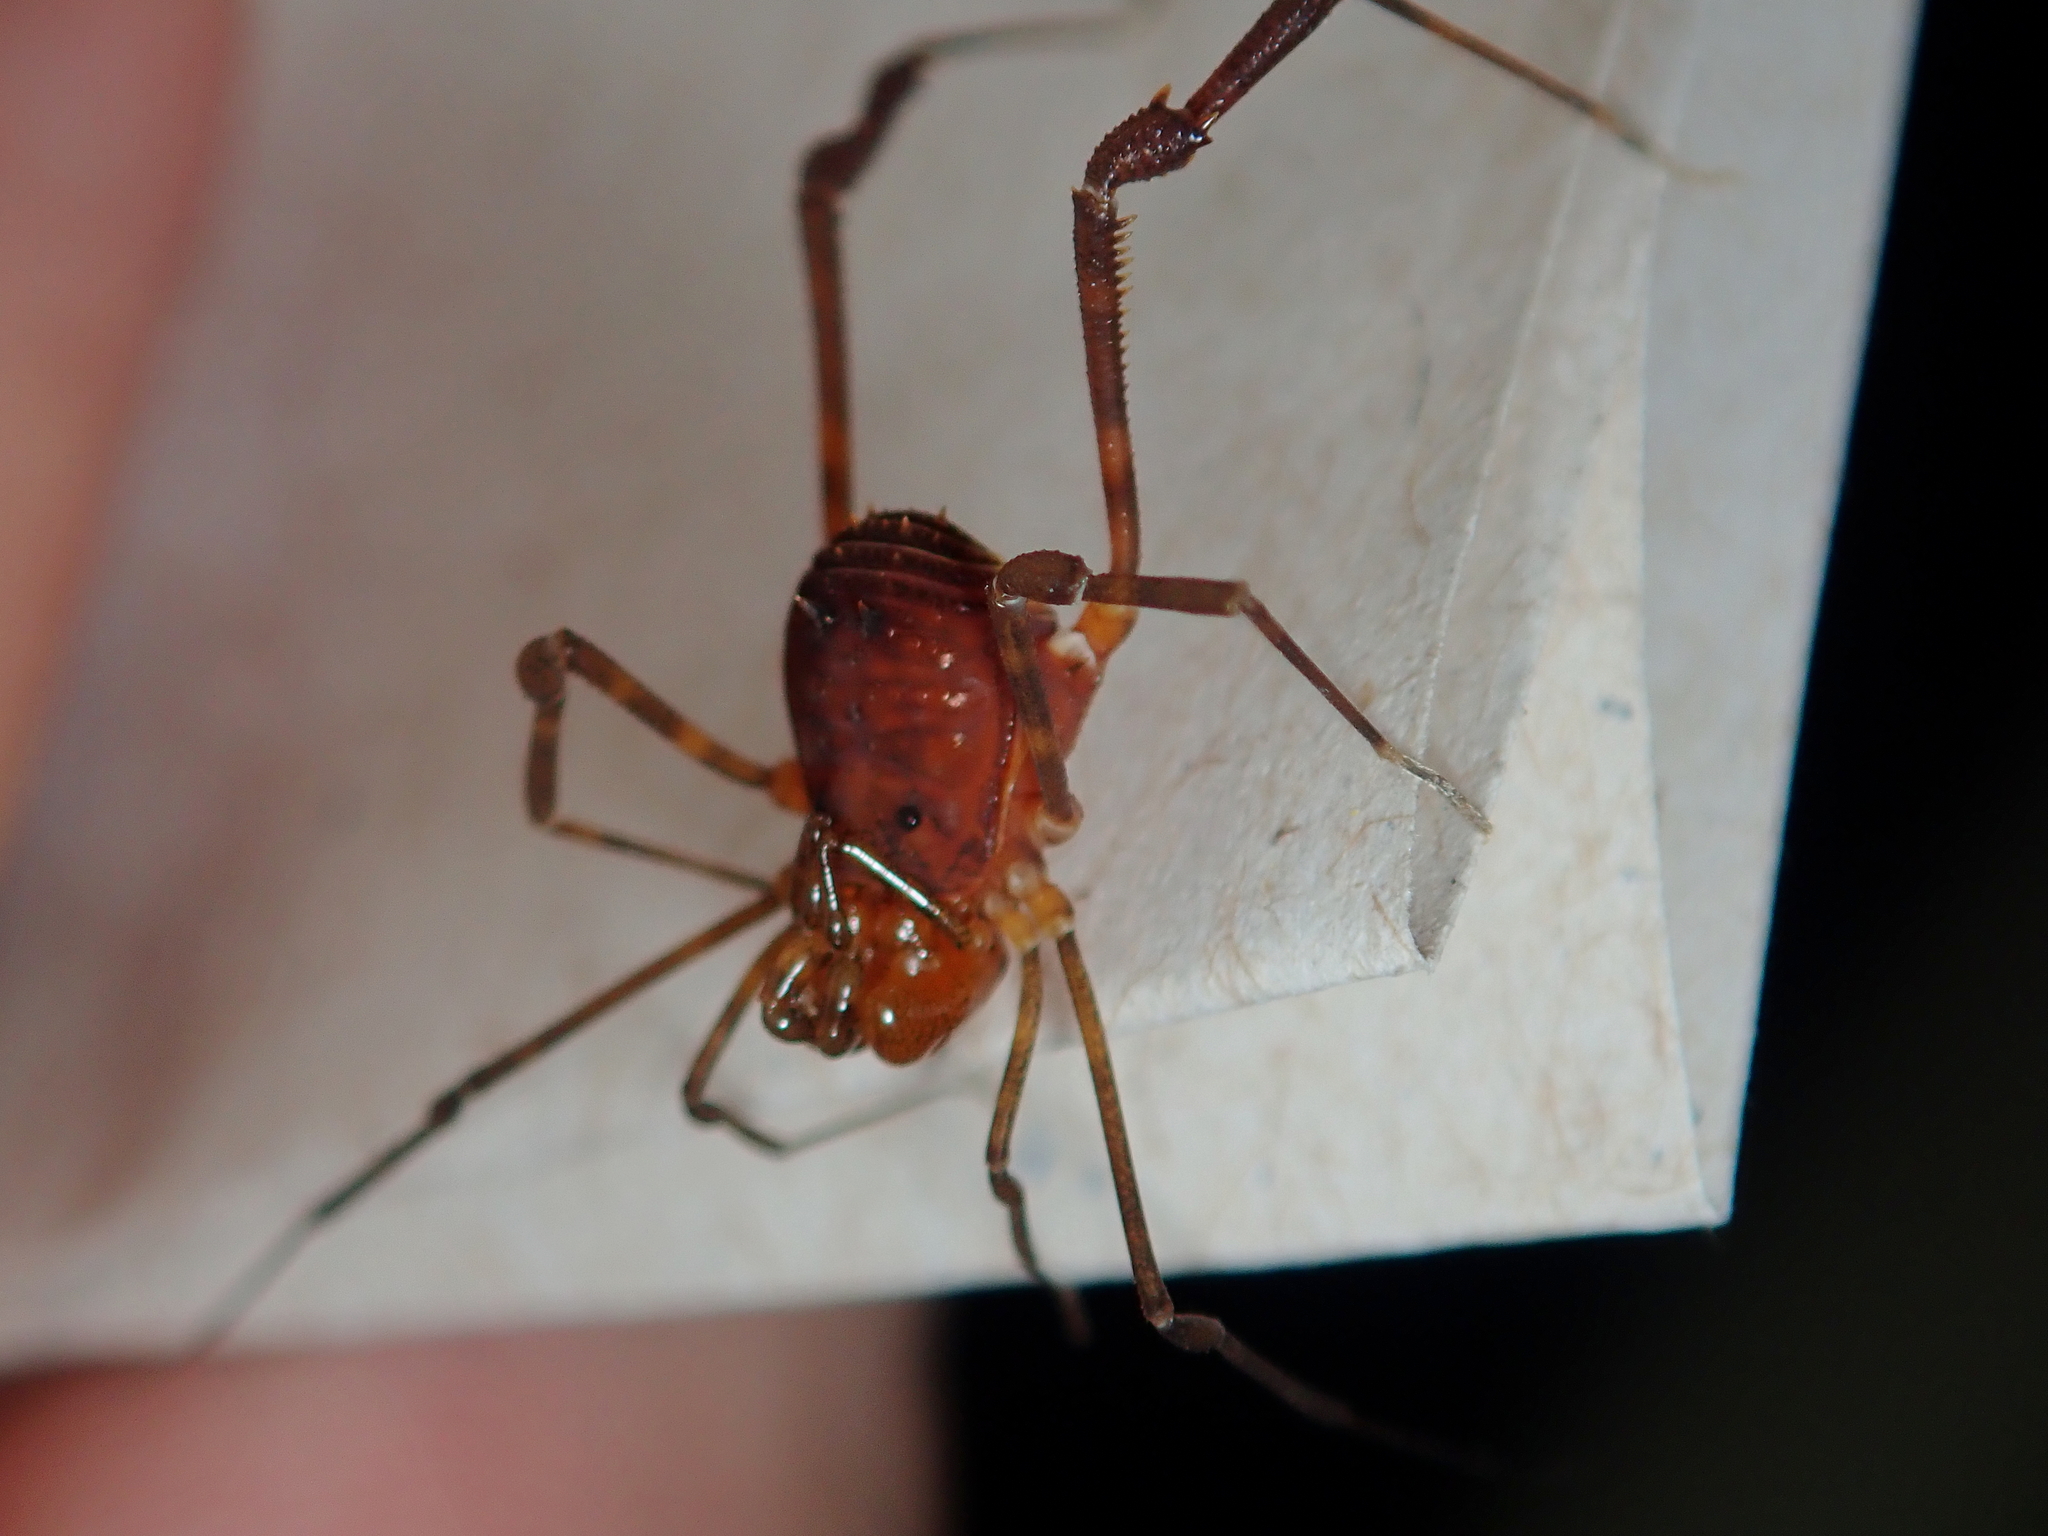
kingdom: Animalia
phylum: Arthropoda
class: Arachnida
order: Opiliones
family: Stygnidae
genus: Stygnus
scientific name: Stygnus luteus
